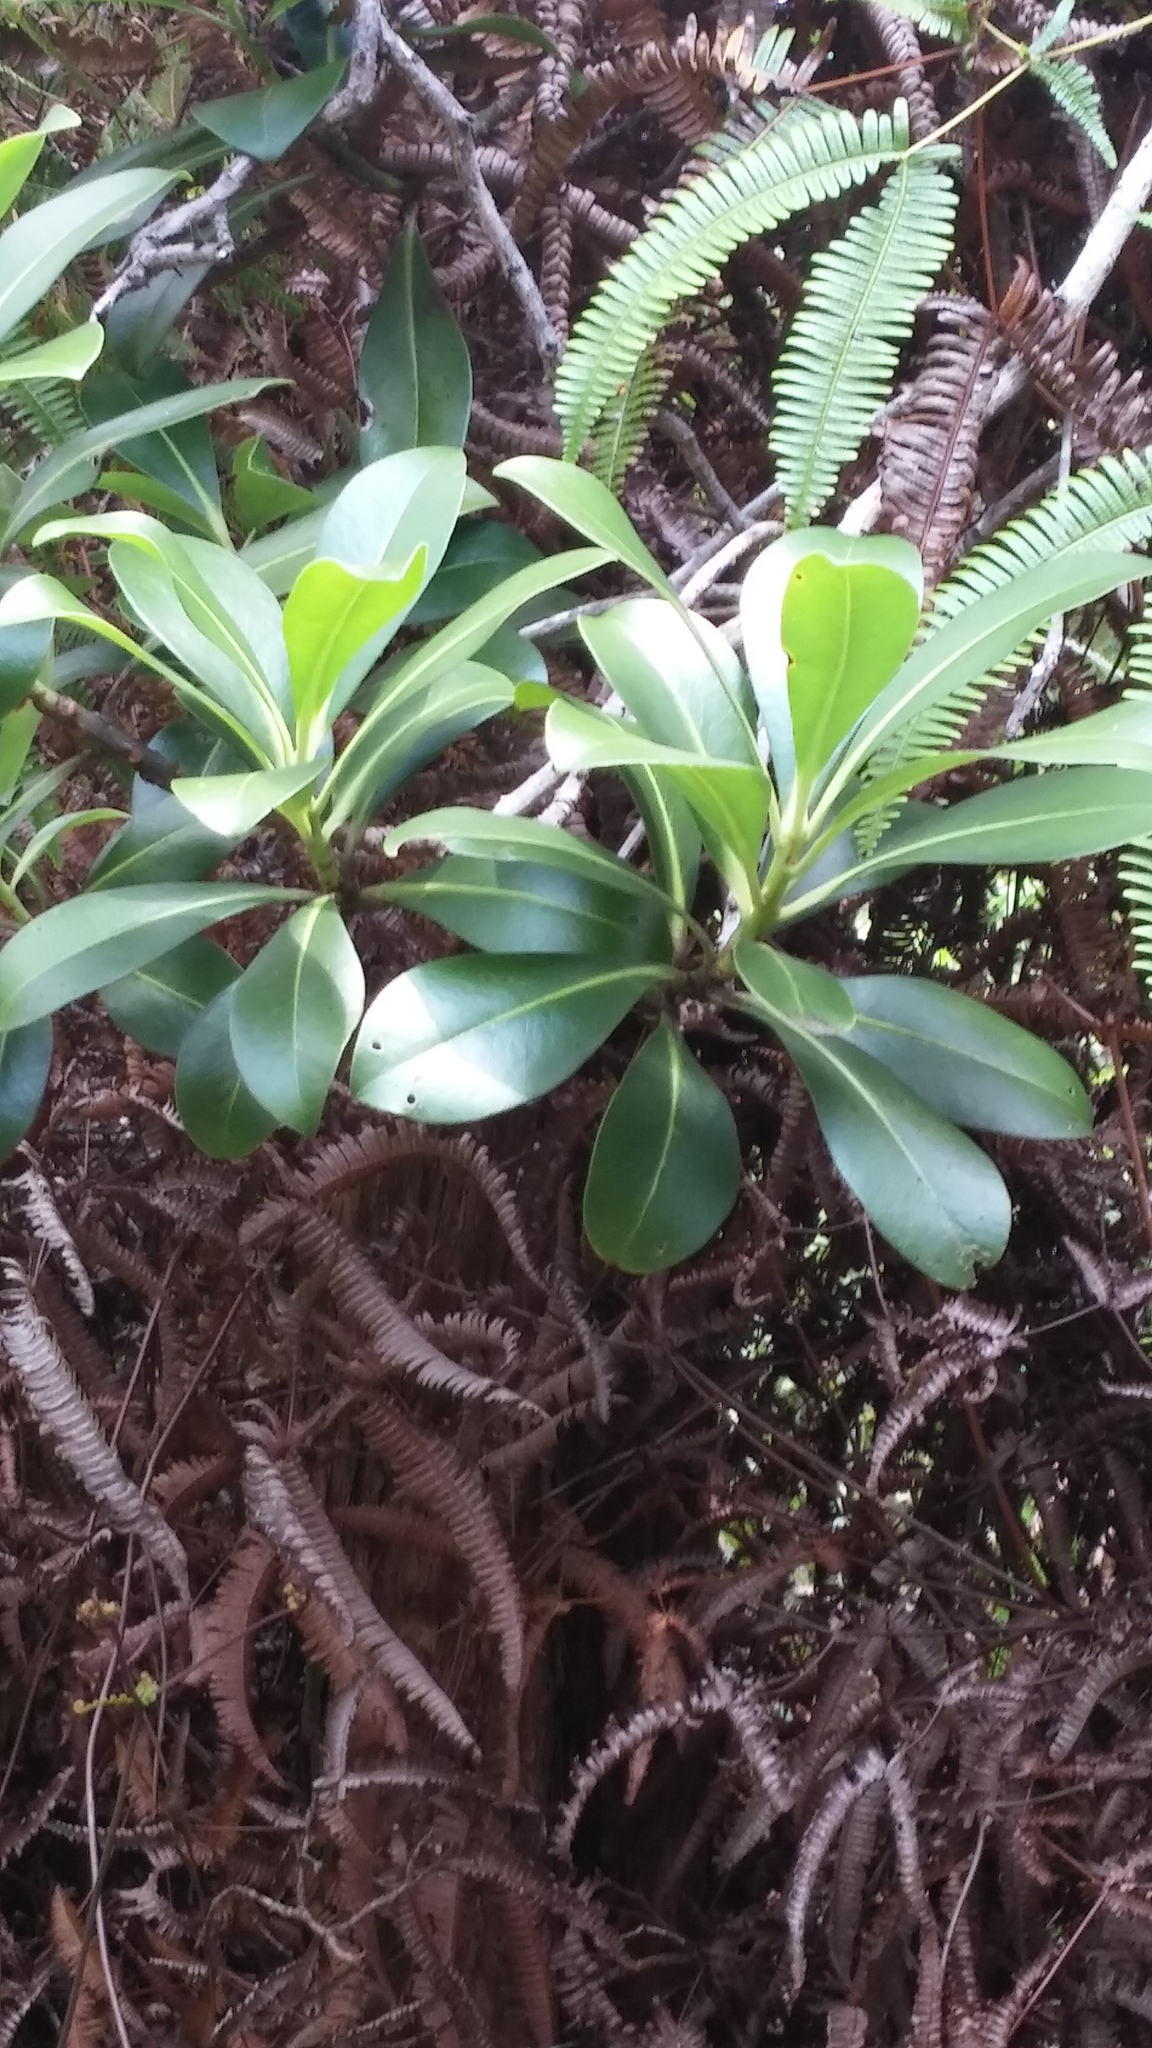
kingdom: Plantae
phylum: Tracheophyta
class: Magnoliopsida
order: Ericales
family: Primulaceae
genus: Myrsine
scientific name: Myrsine lessertiana
